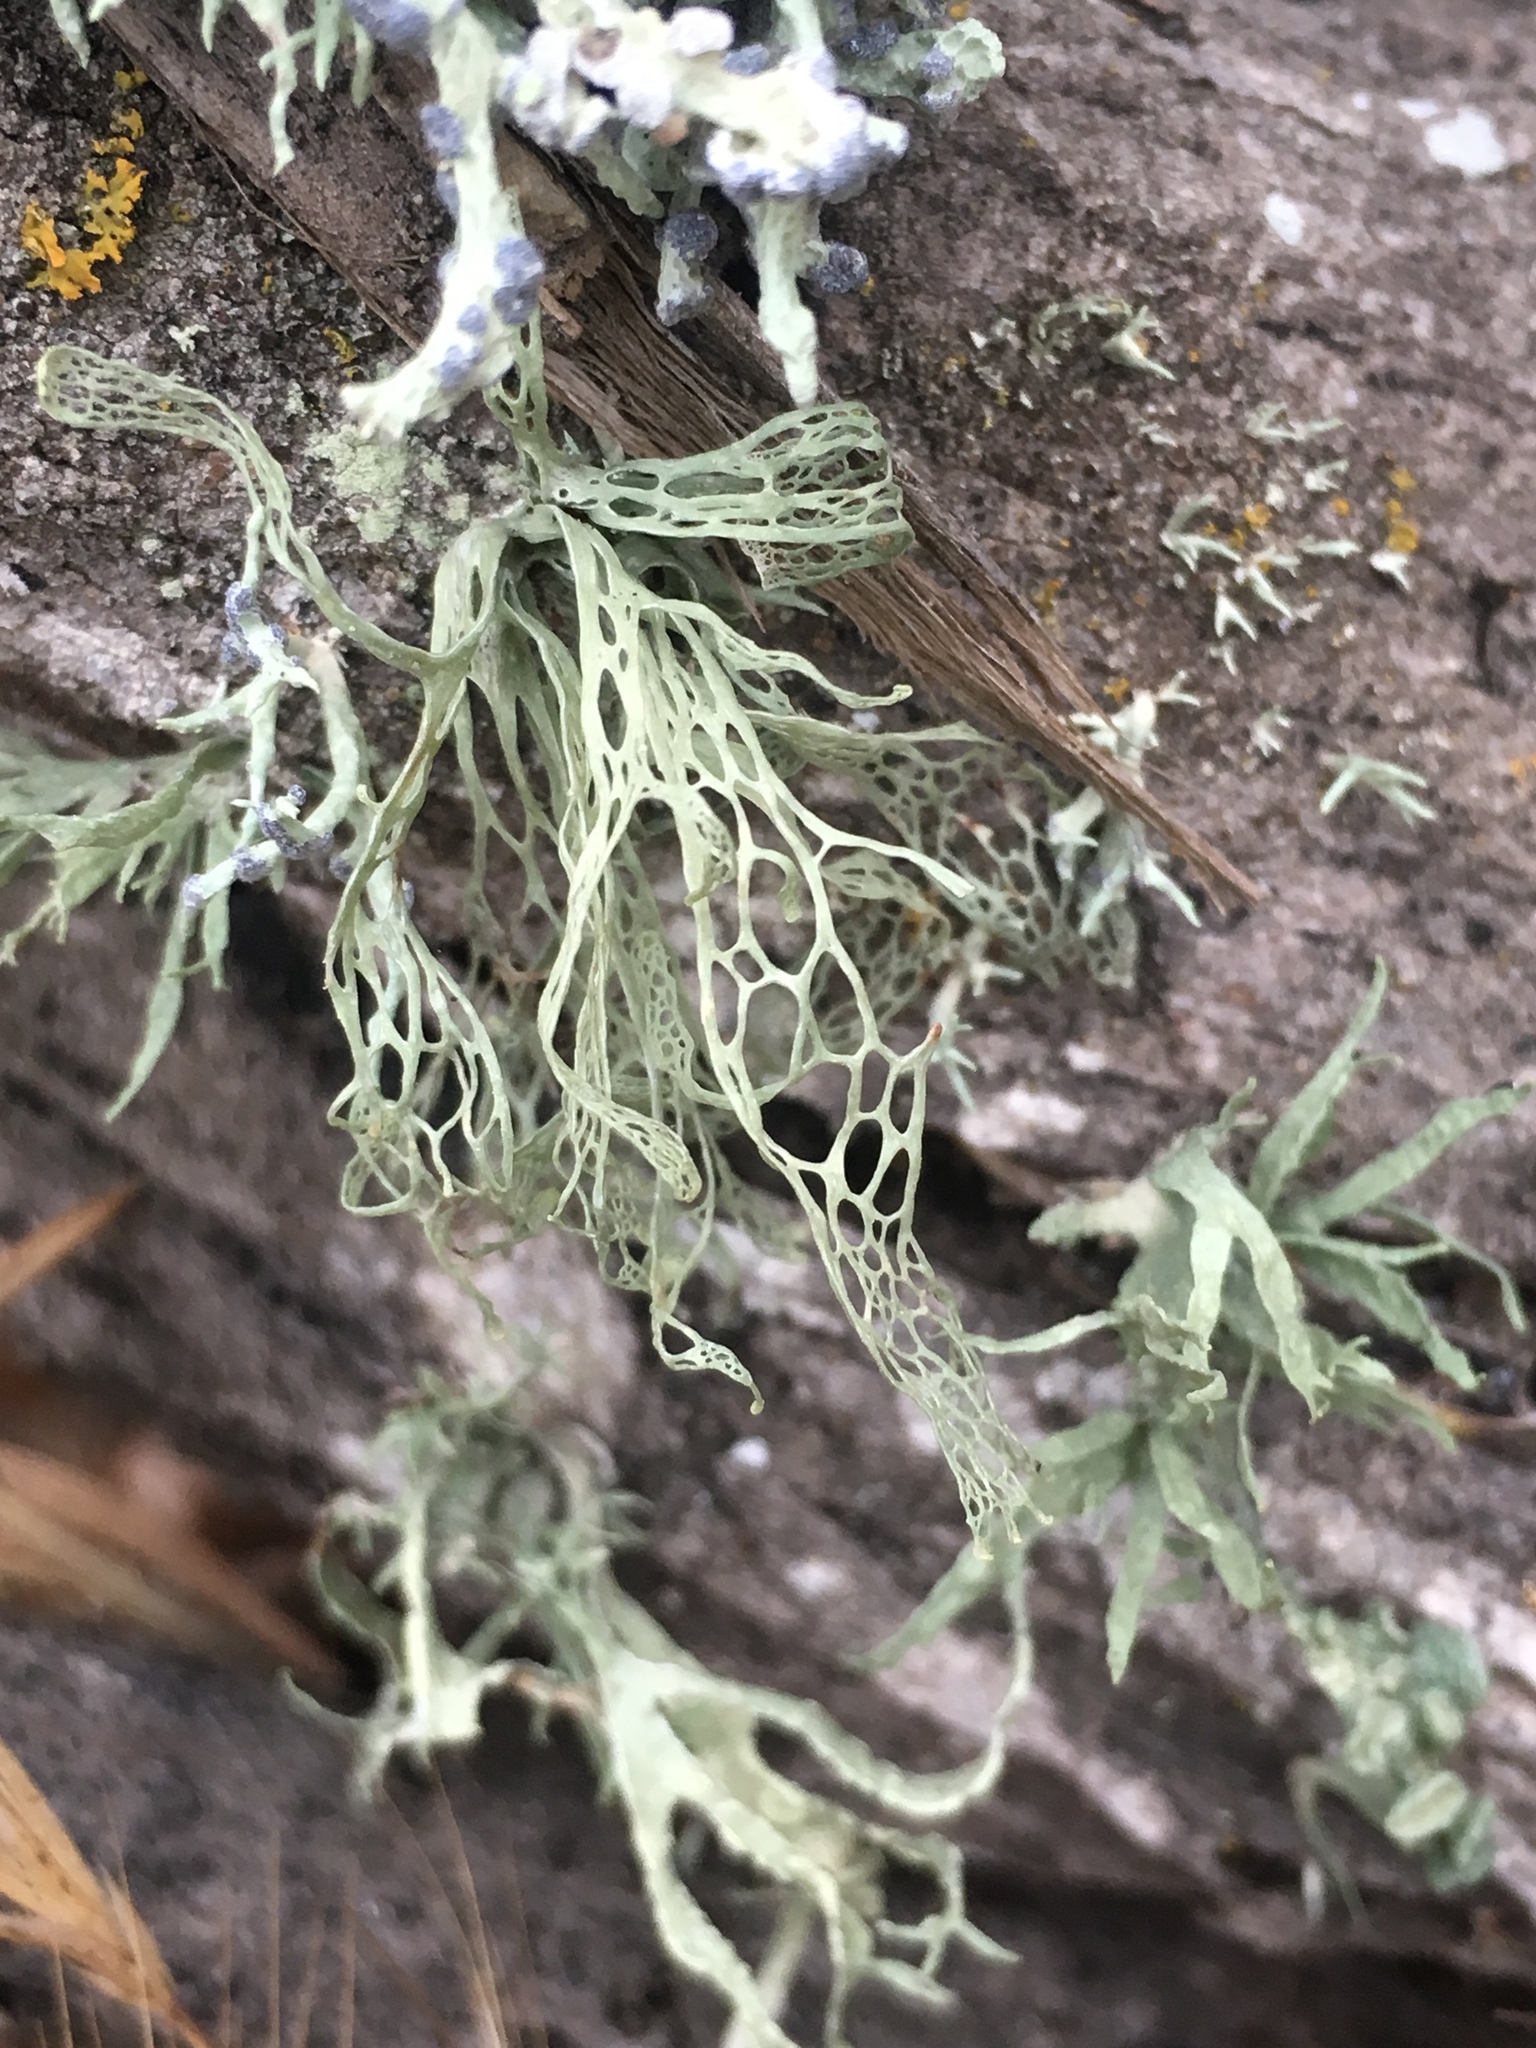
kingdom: Fungi
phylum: Ascomycota
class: Lecanoromycetes
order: Lecanorales
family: Ramalinaceae
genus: Ramalina
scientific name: Ramalina menziesii
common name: Lace lichen
